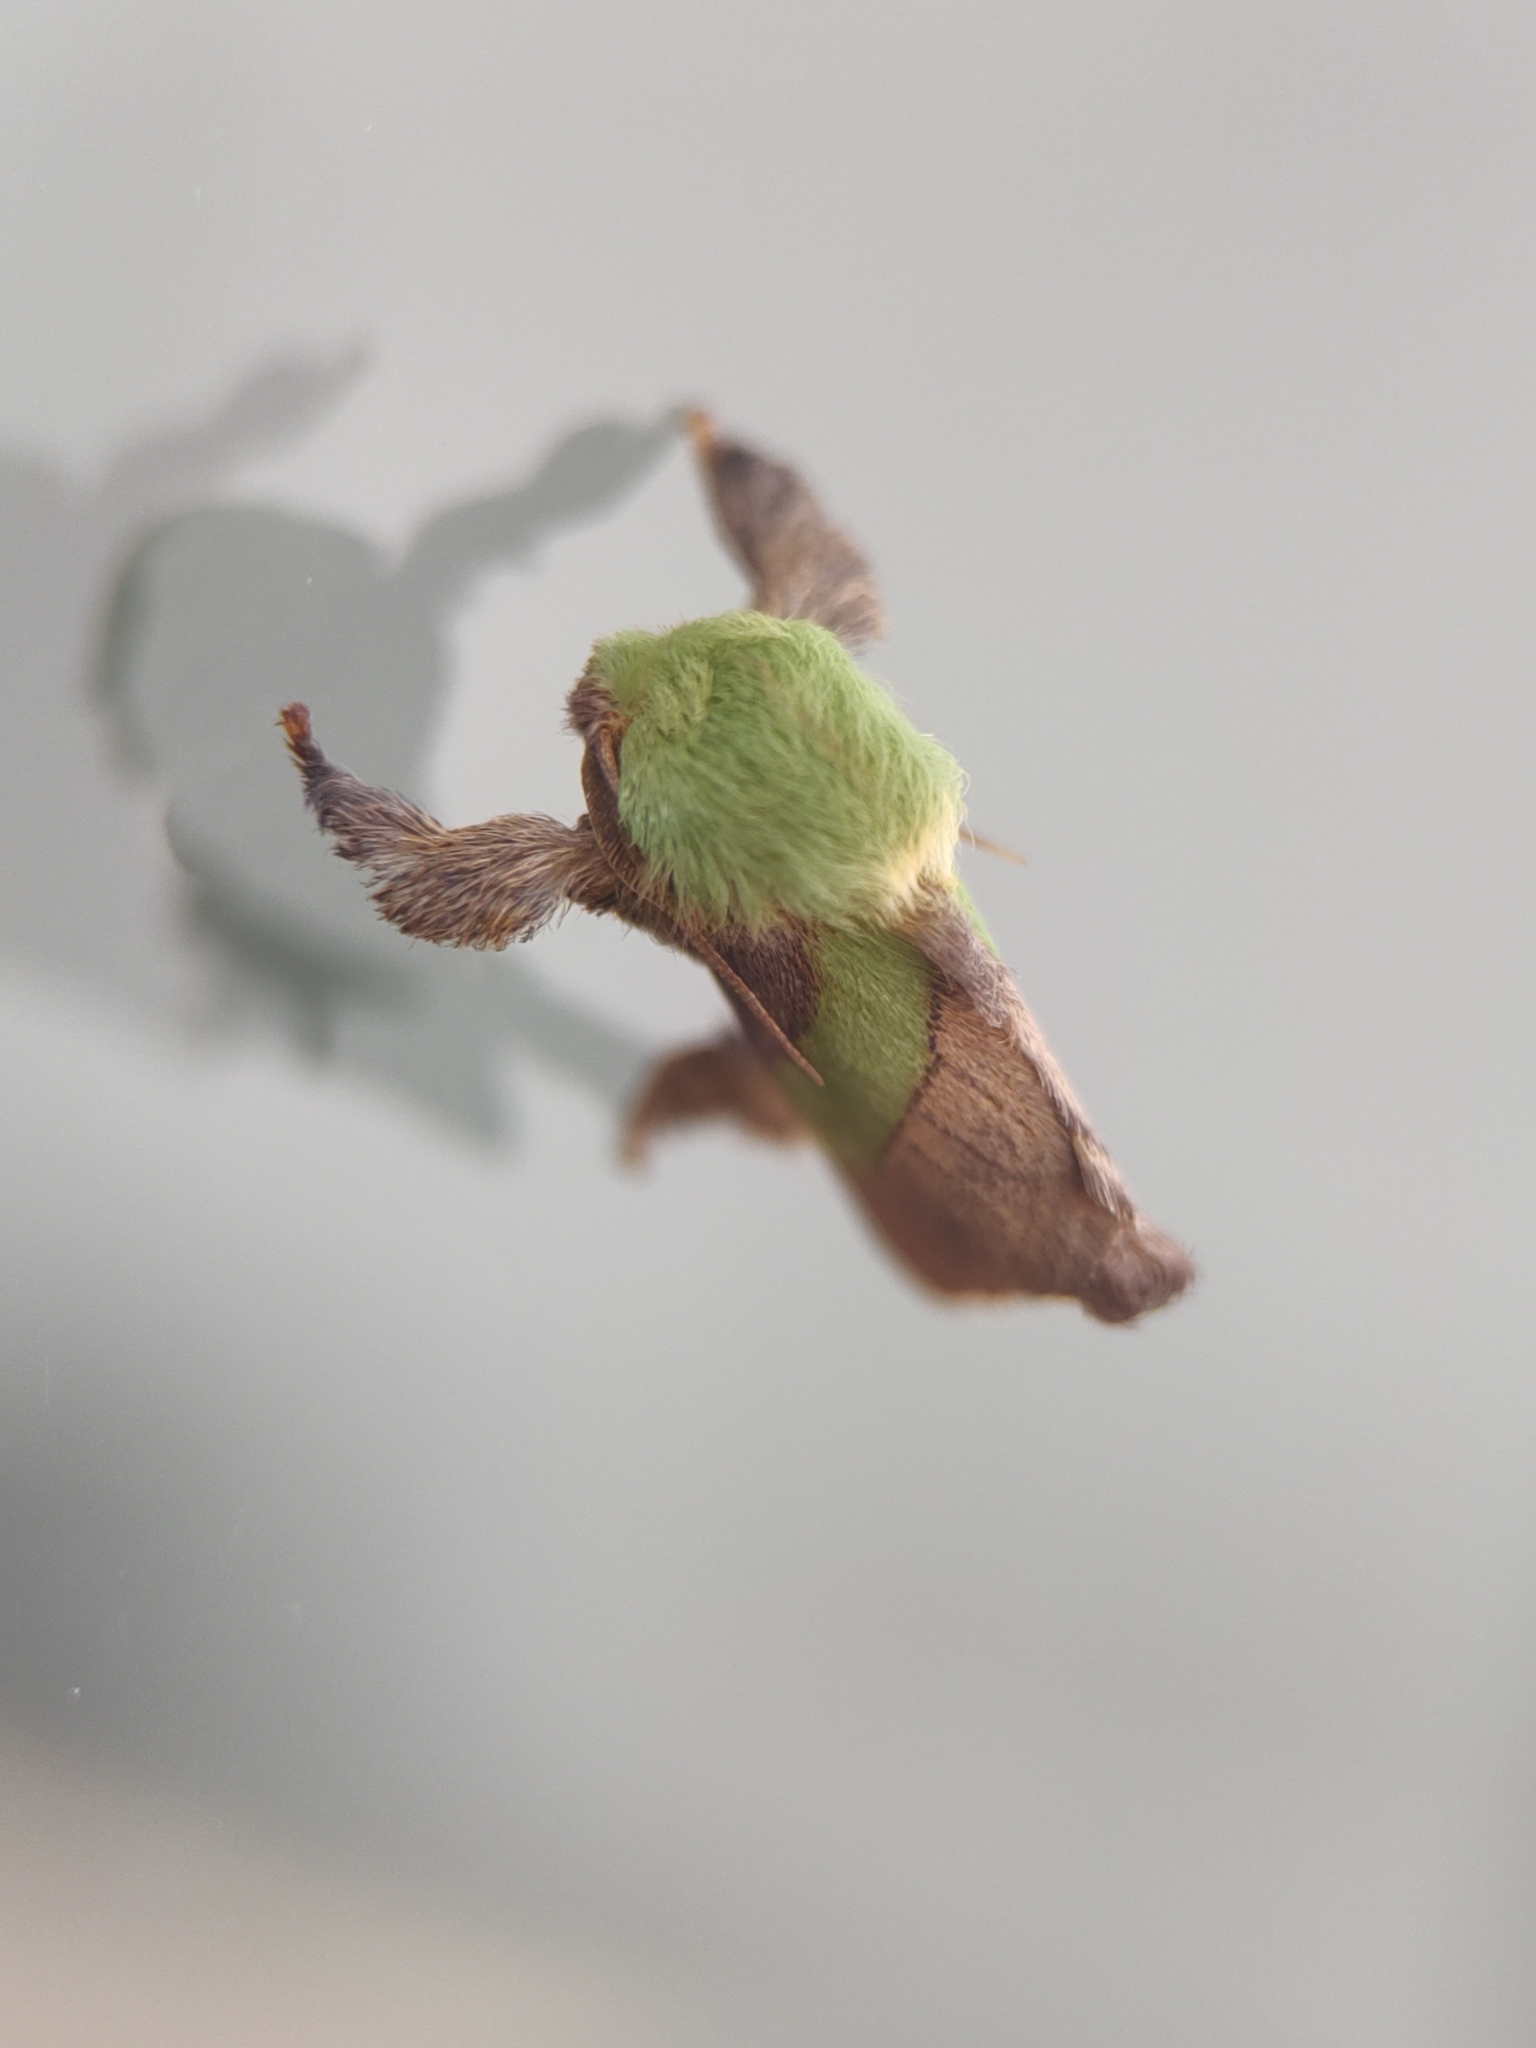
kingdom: Animalia
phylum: Arthropoda
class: Insecta
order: Lepidoptera
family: Limacodidae
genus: Parasa
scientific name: Parasa minima
